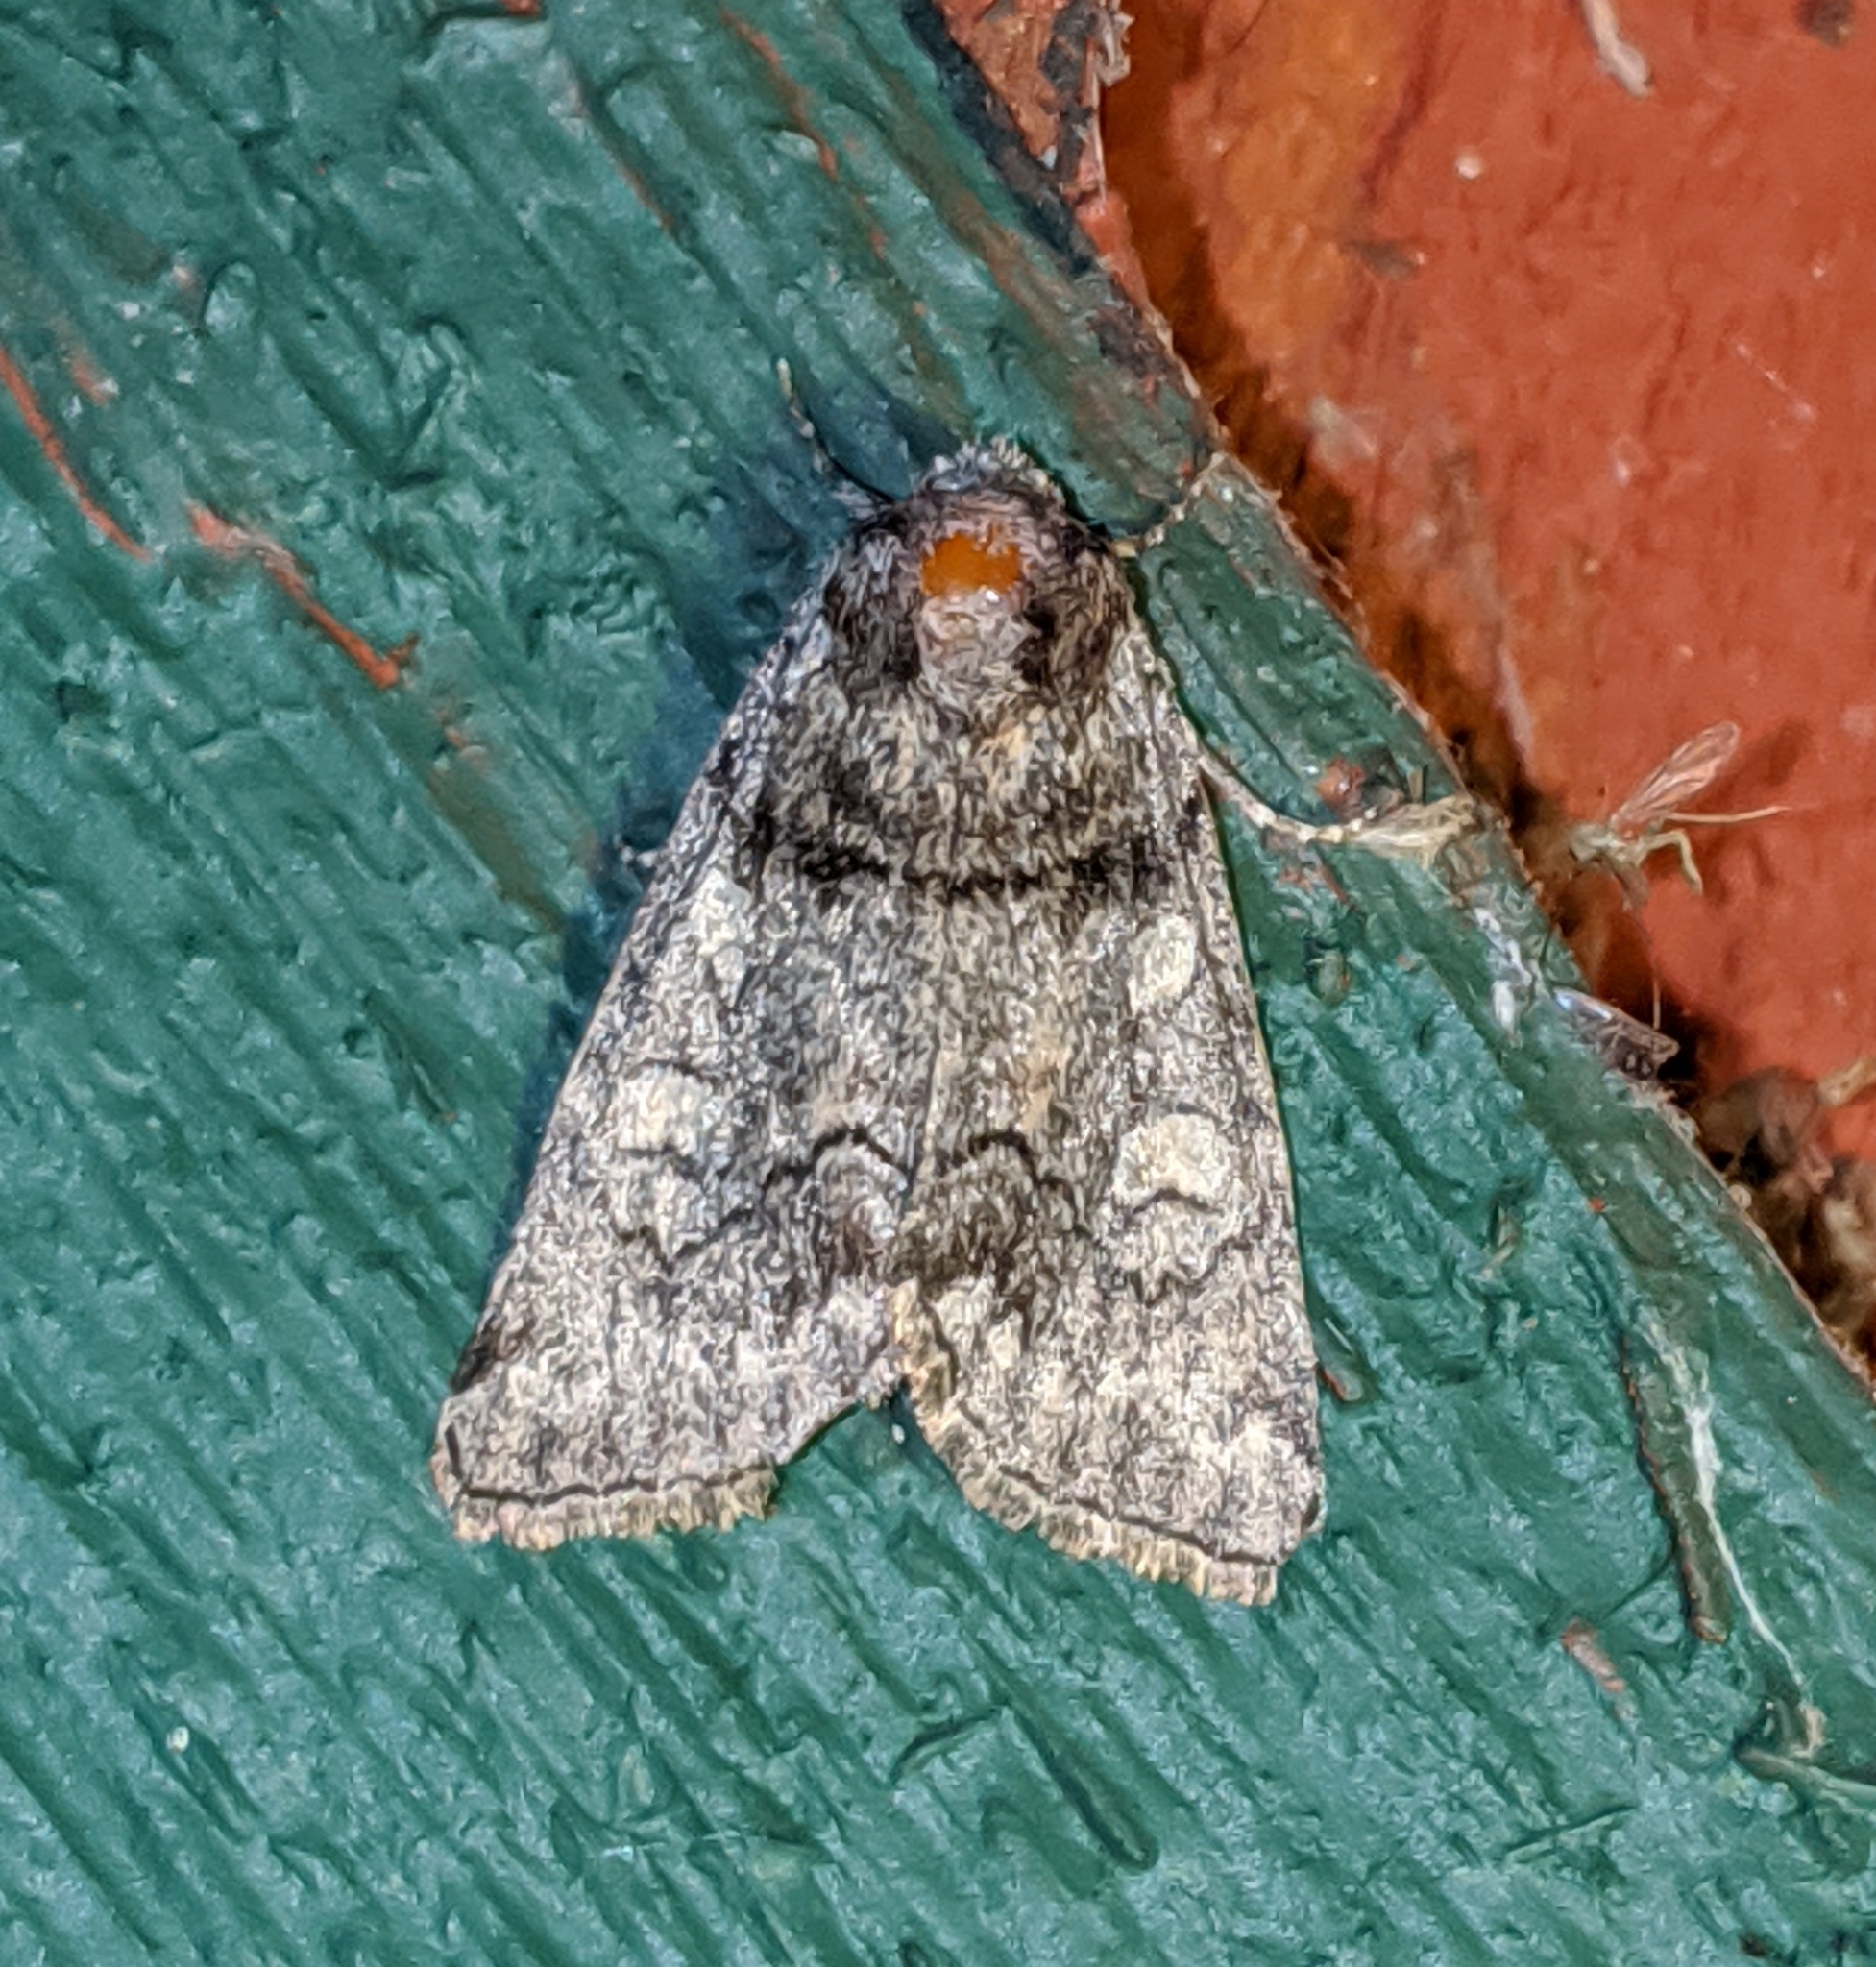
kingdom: Animalia
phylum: Arthropoda
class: Insecta
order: Lepidoptera
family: Noctuidae
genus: Cosmia
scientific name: Cosmia praeacuta
